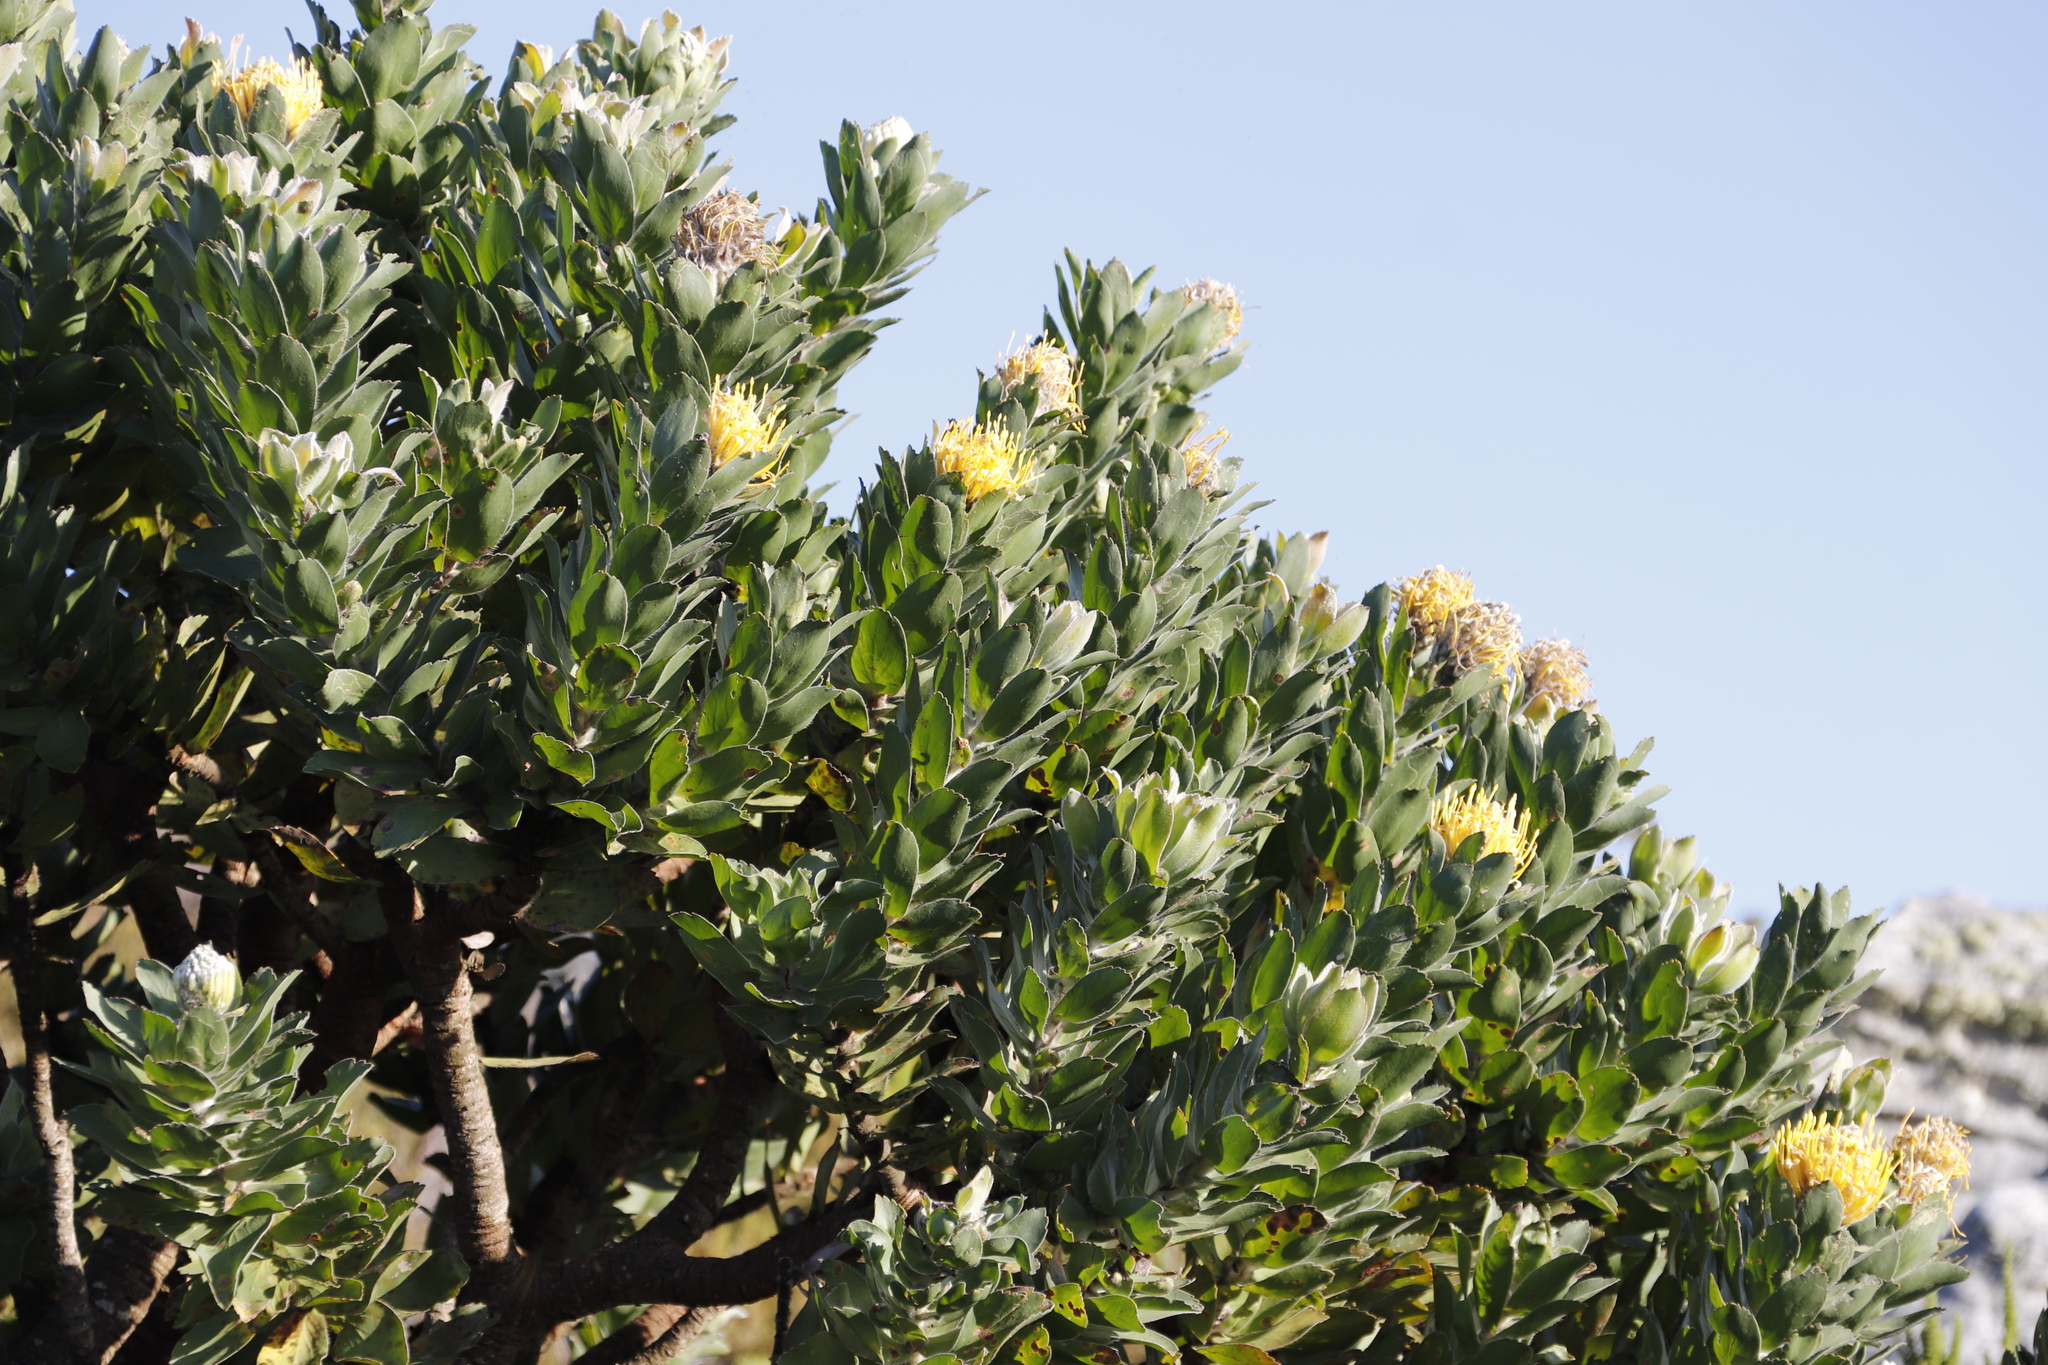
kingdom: Plantae
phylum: Tracheophyta
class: Magnoliopsida
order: Proteales
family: Proteaceae
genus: Leucospermum
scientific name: Leucospermum conocarpodendron
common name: Tree pincushion
